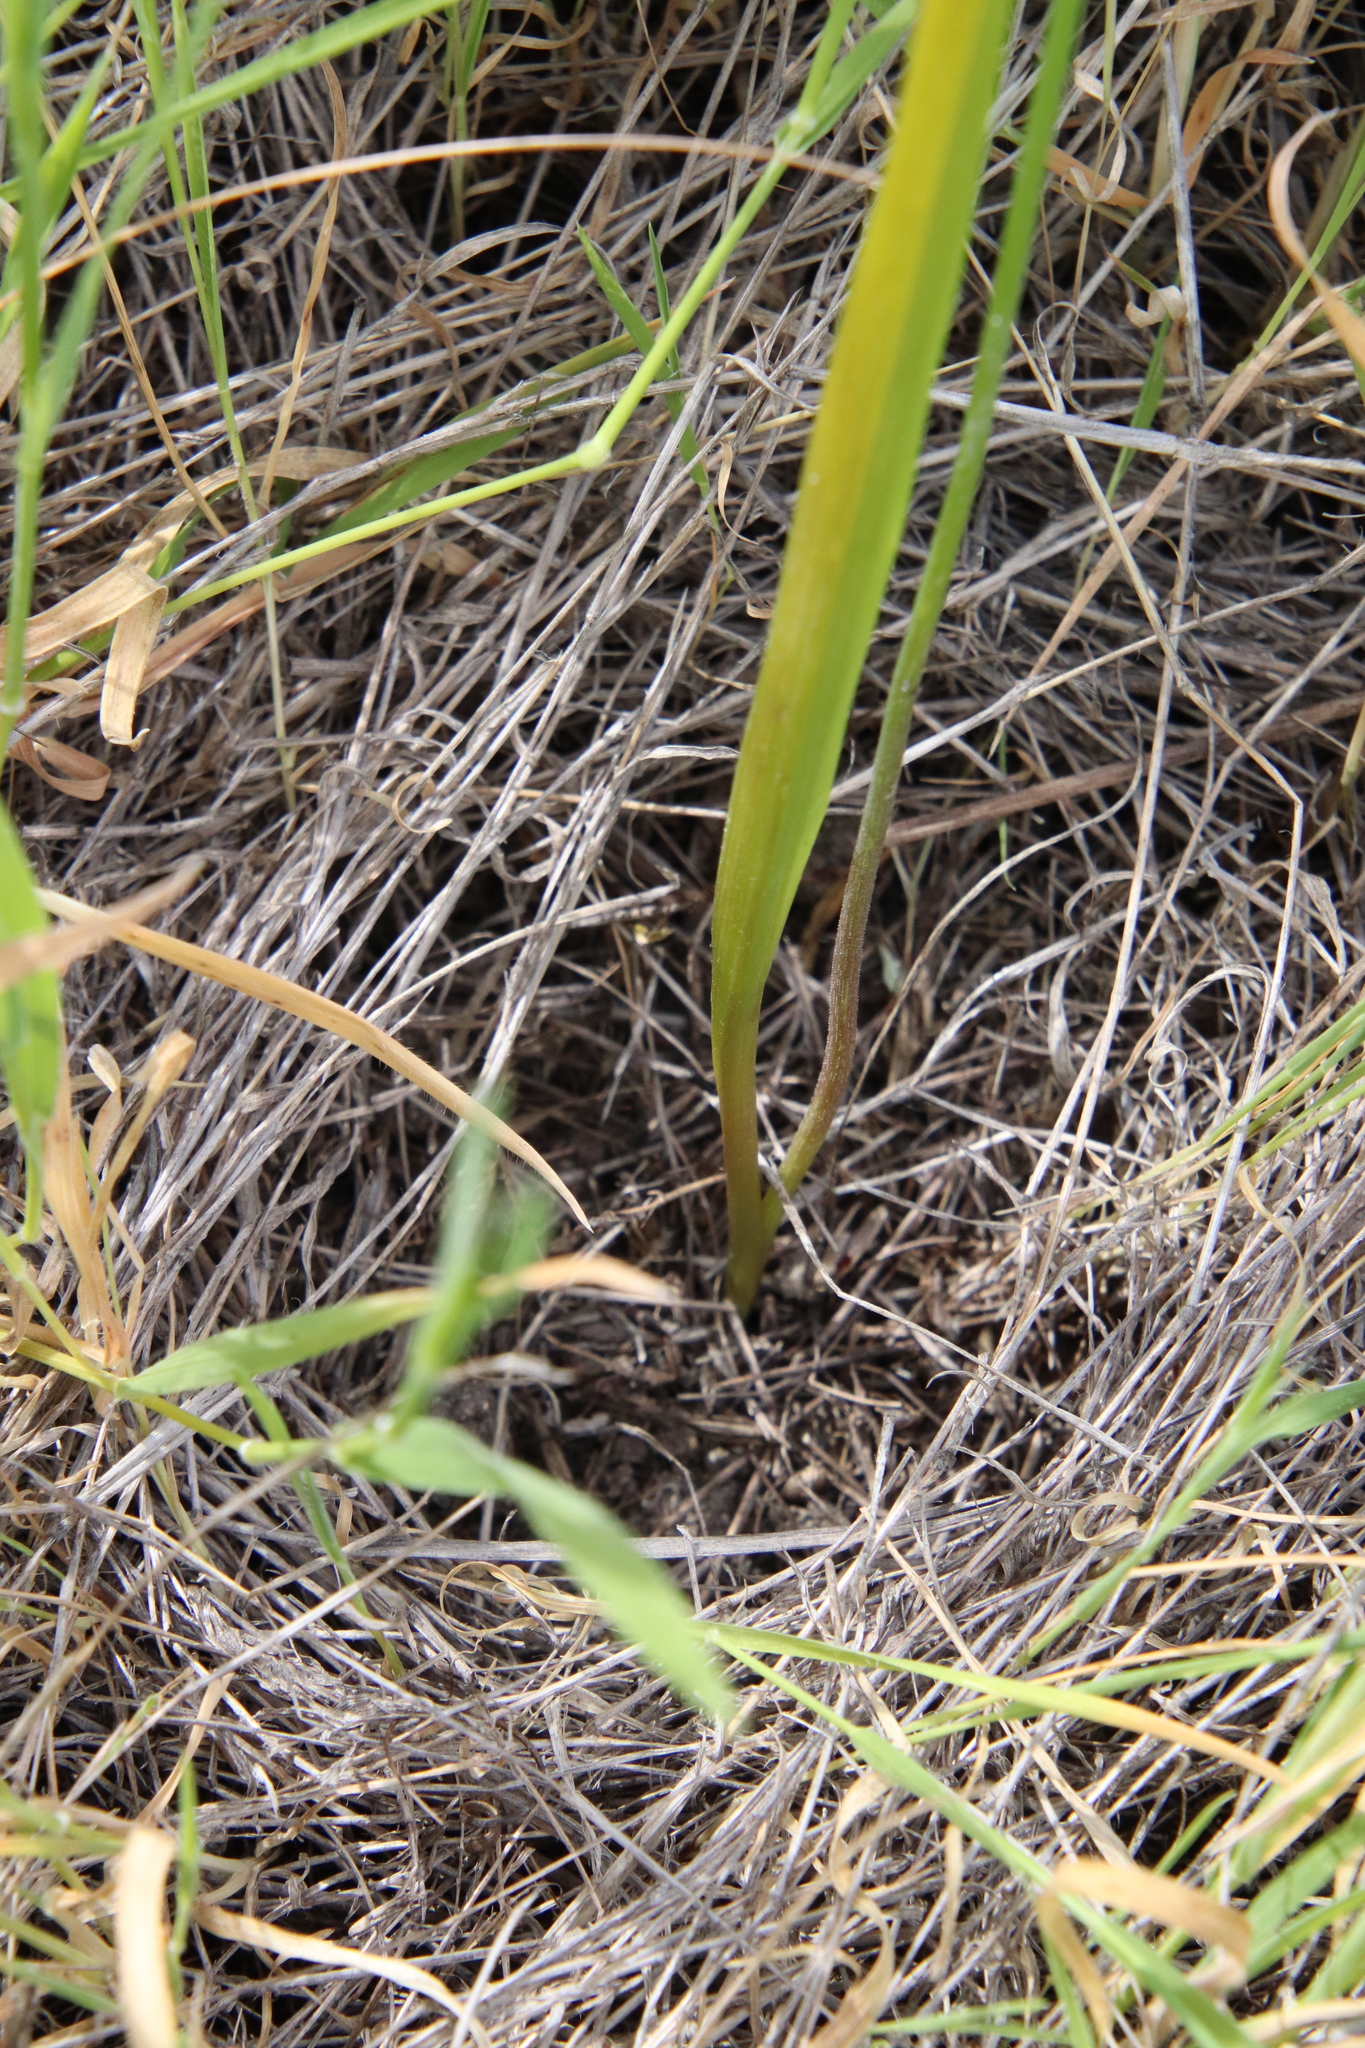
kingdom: Plantae
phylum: Tracheophyta
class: Liliopsida
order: Asparagales
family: Asparagaceae
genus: Dipterostemon
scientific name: Dipterostemon capitatus
